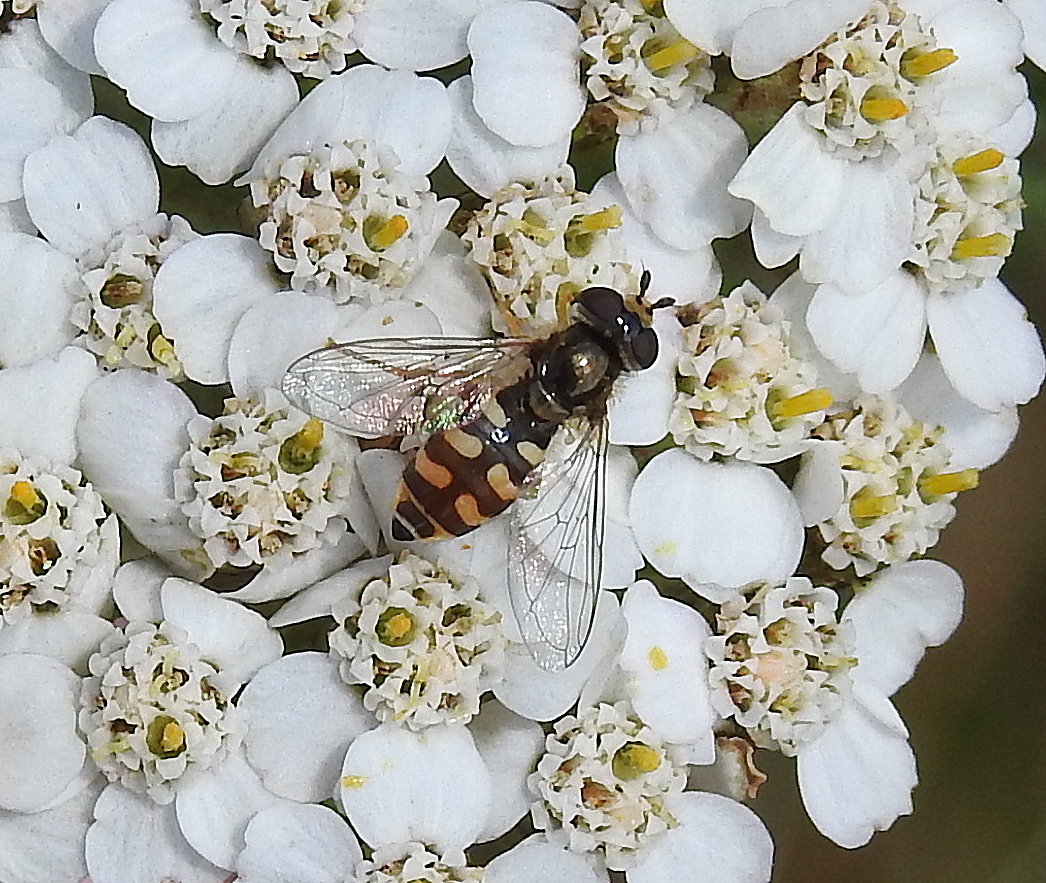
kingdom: Animalia
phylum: Arthropoda
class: Insecta
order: Diptera
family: Syrphidae
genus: Eupeodes
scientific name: Eupeodes corollae
